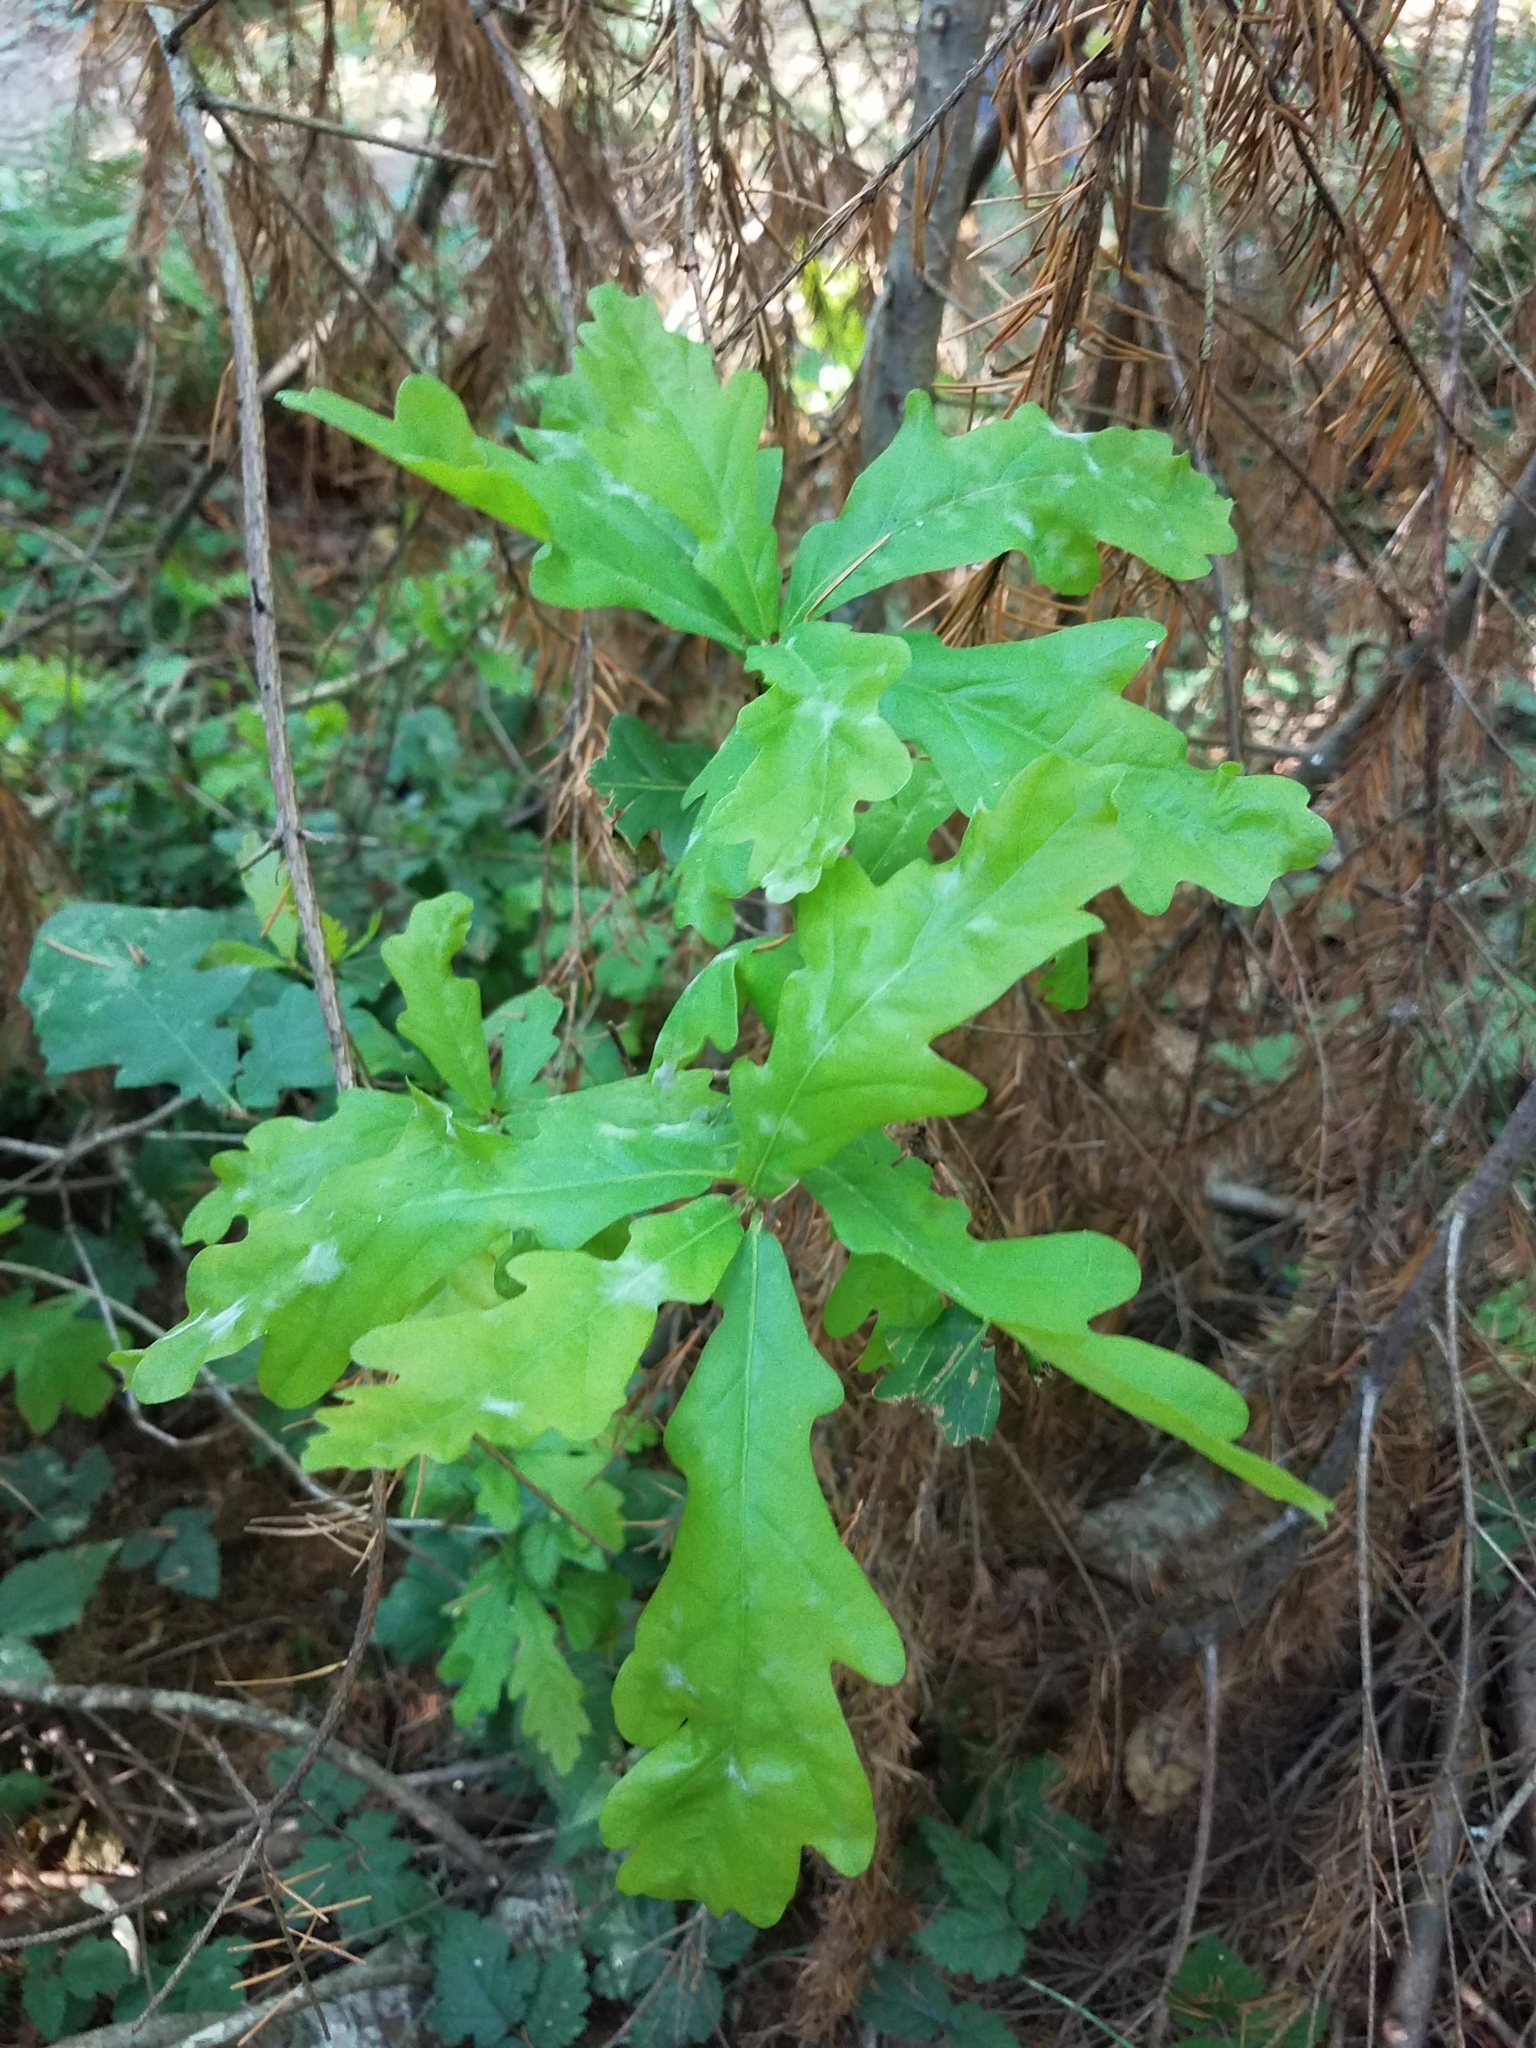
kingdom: Plantae
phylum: Tracheophyta
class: Magnoliopsida
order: Fagales
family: Fagaceae
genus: Quercus
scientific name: Quercus robur
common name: Pedunculate oak
